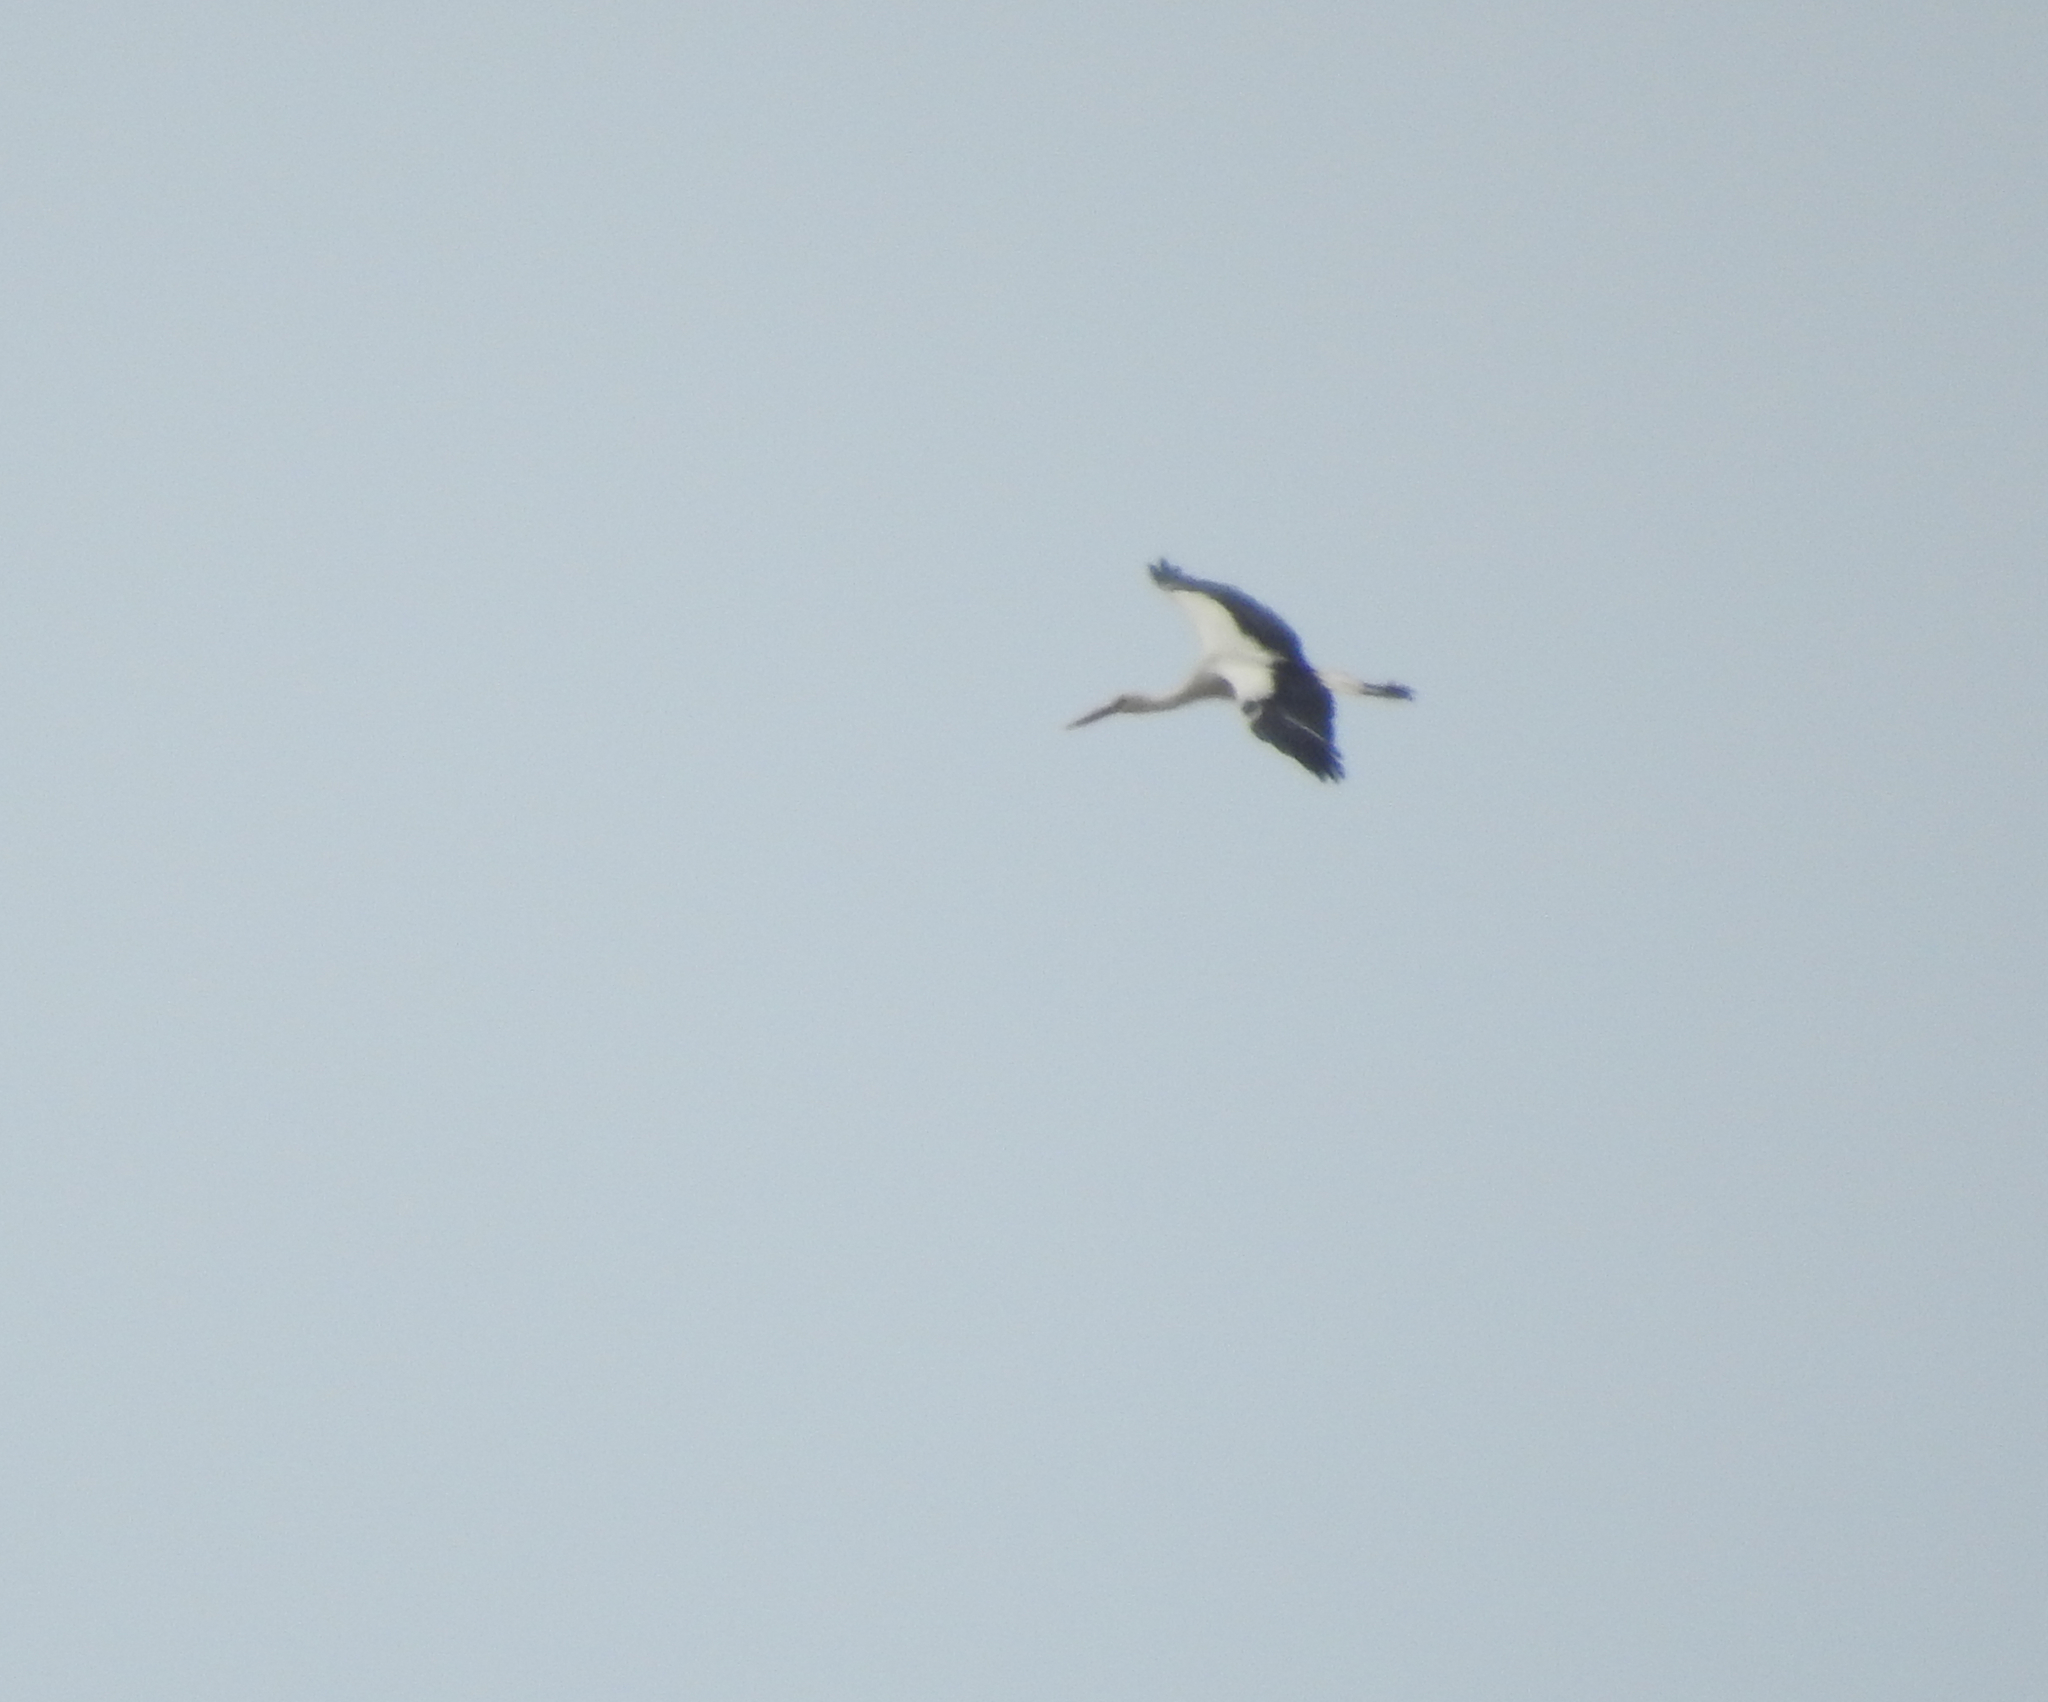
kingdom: Animalia
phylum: Chordata
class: Aves
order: Ciconiiformes
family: Ciconiidae
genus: Ciconia
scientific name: Ciconia ciconia
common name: White stork
